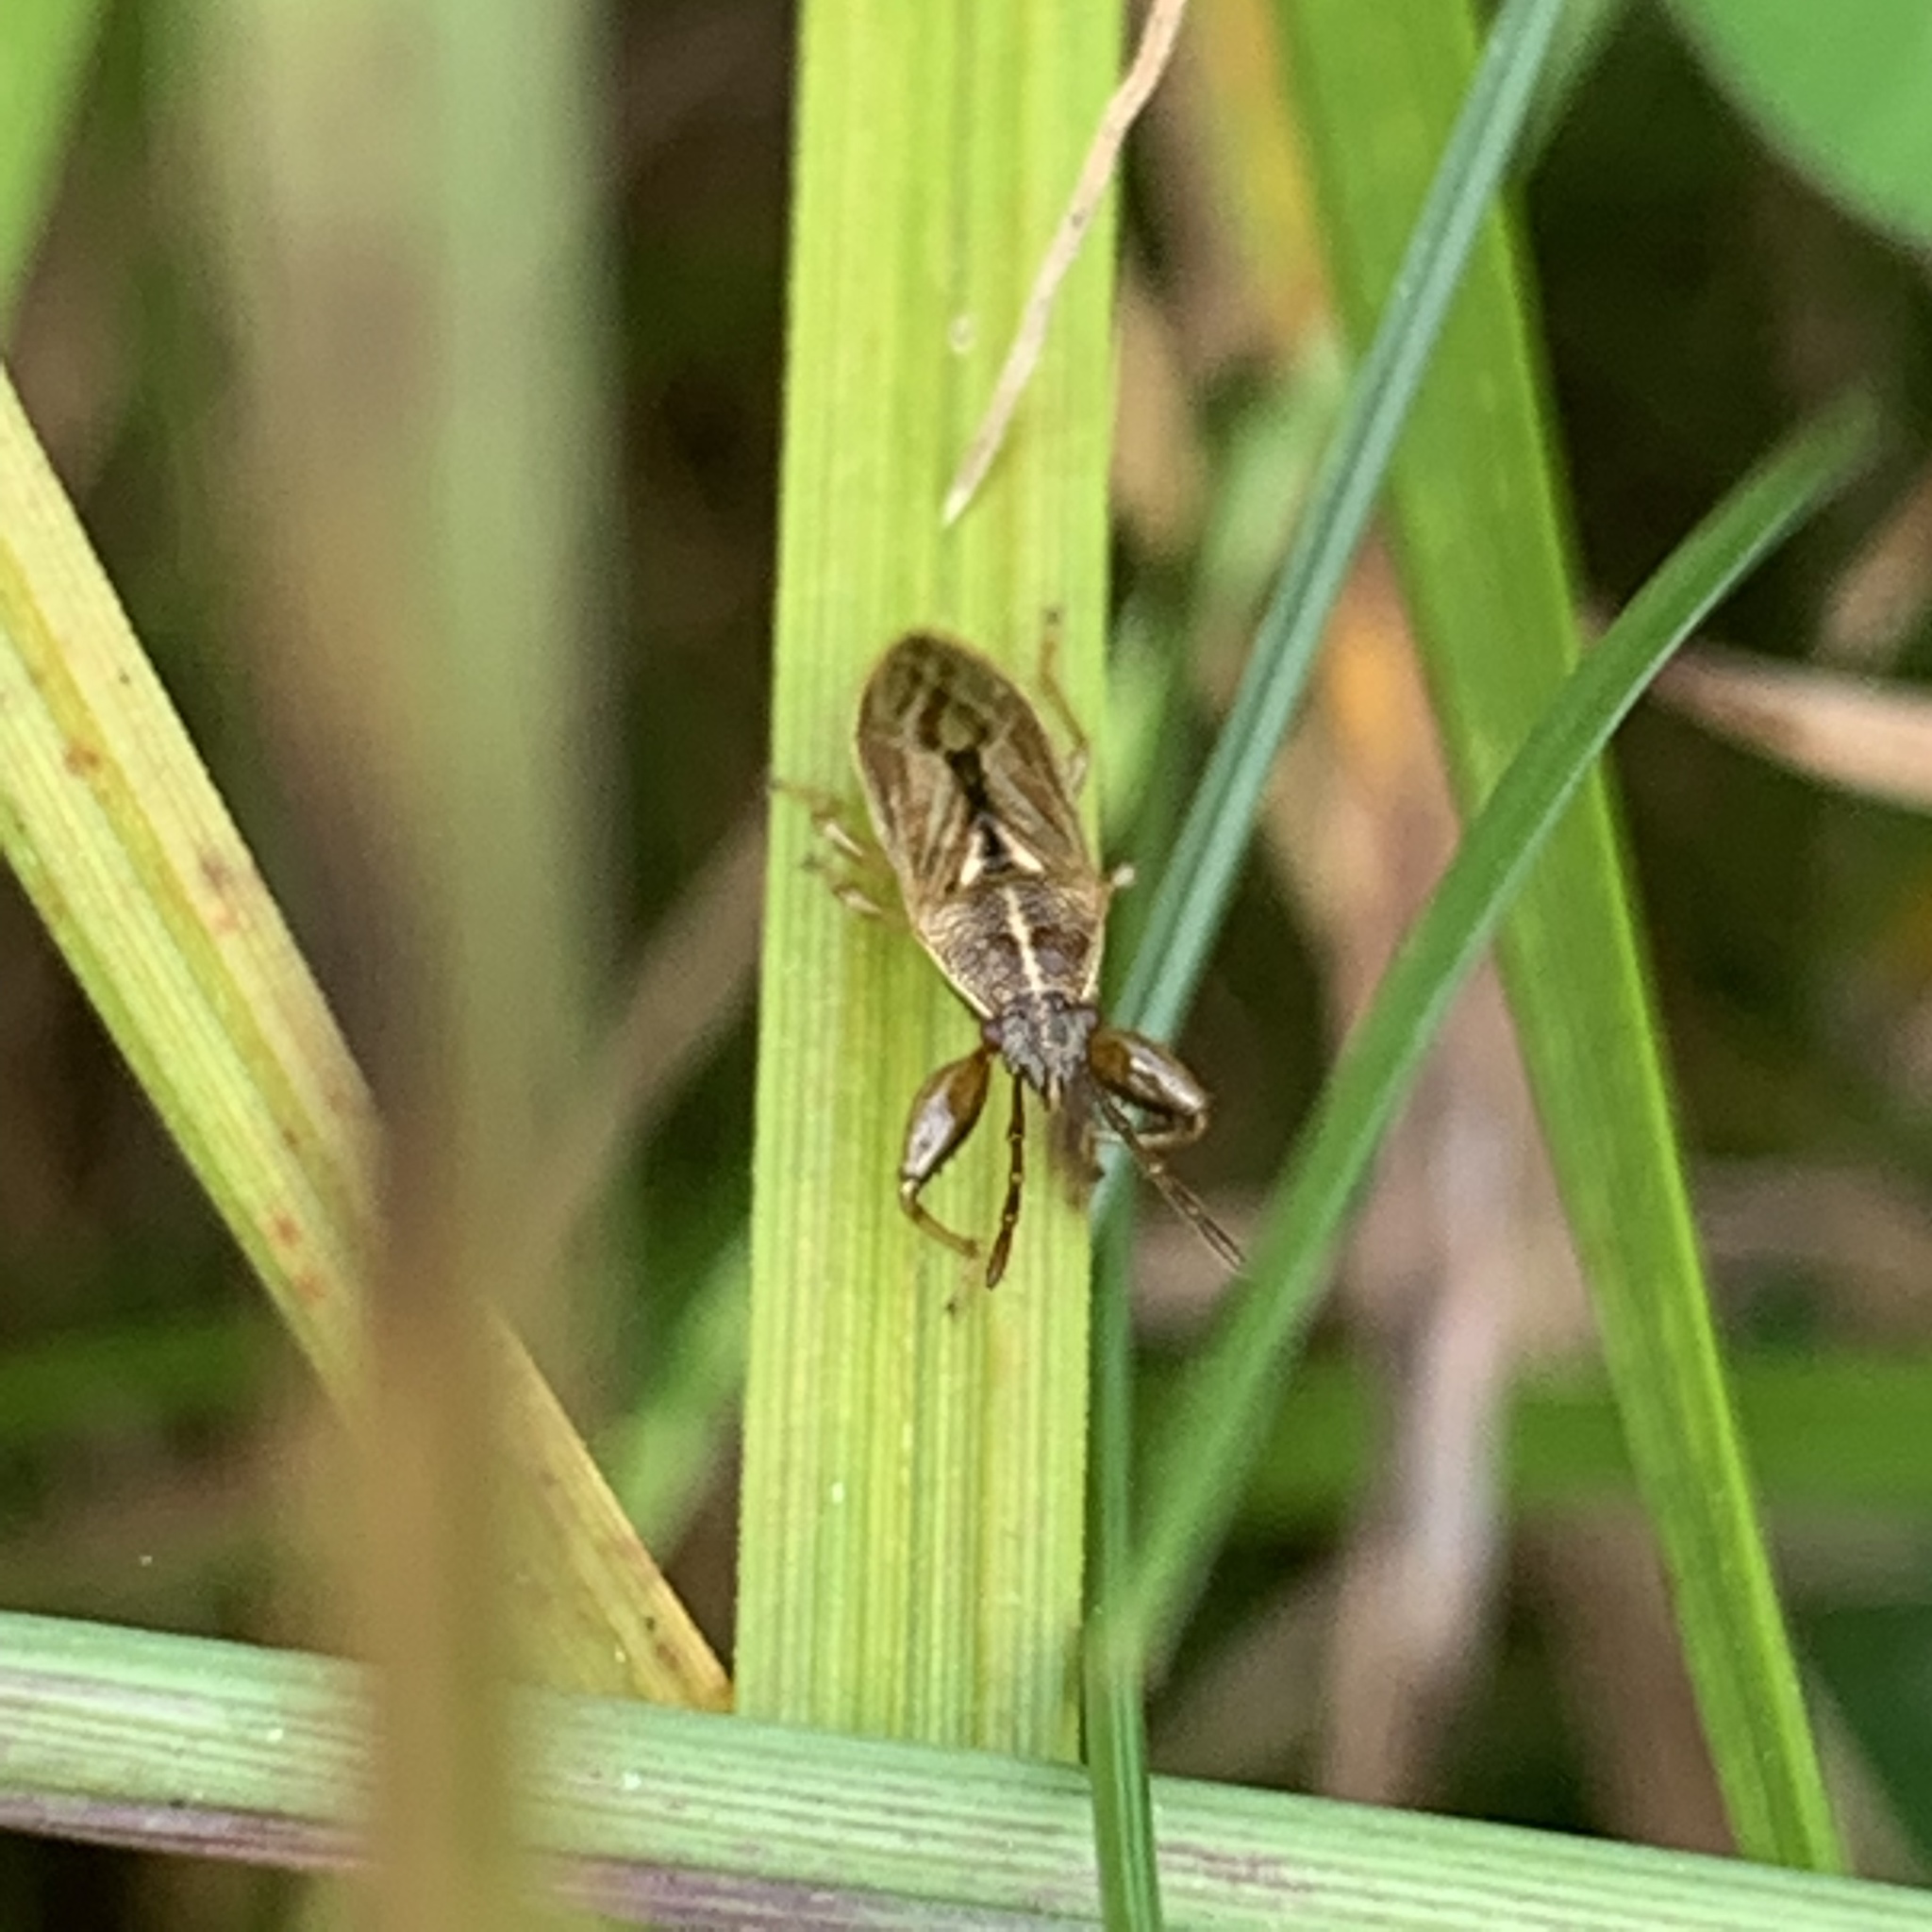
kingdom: Animalia
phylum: Arthropoda
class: Insecta
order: Hemiptera
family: Pachygronthidae
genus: Oedancala
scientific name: Oedancala dorsalis
